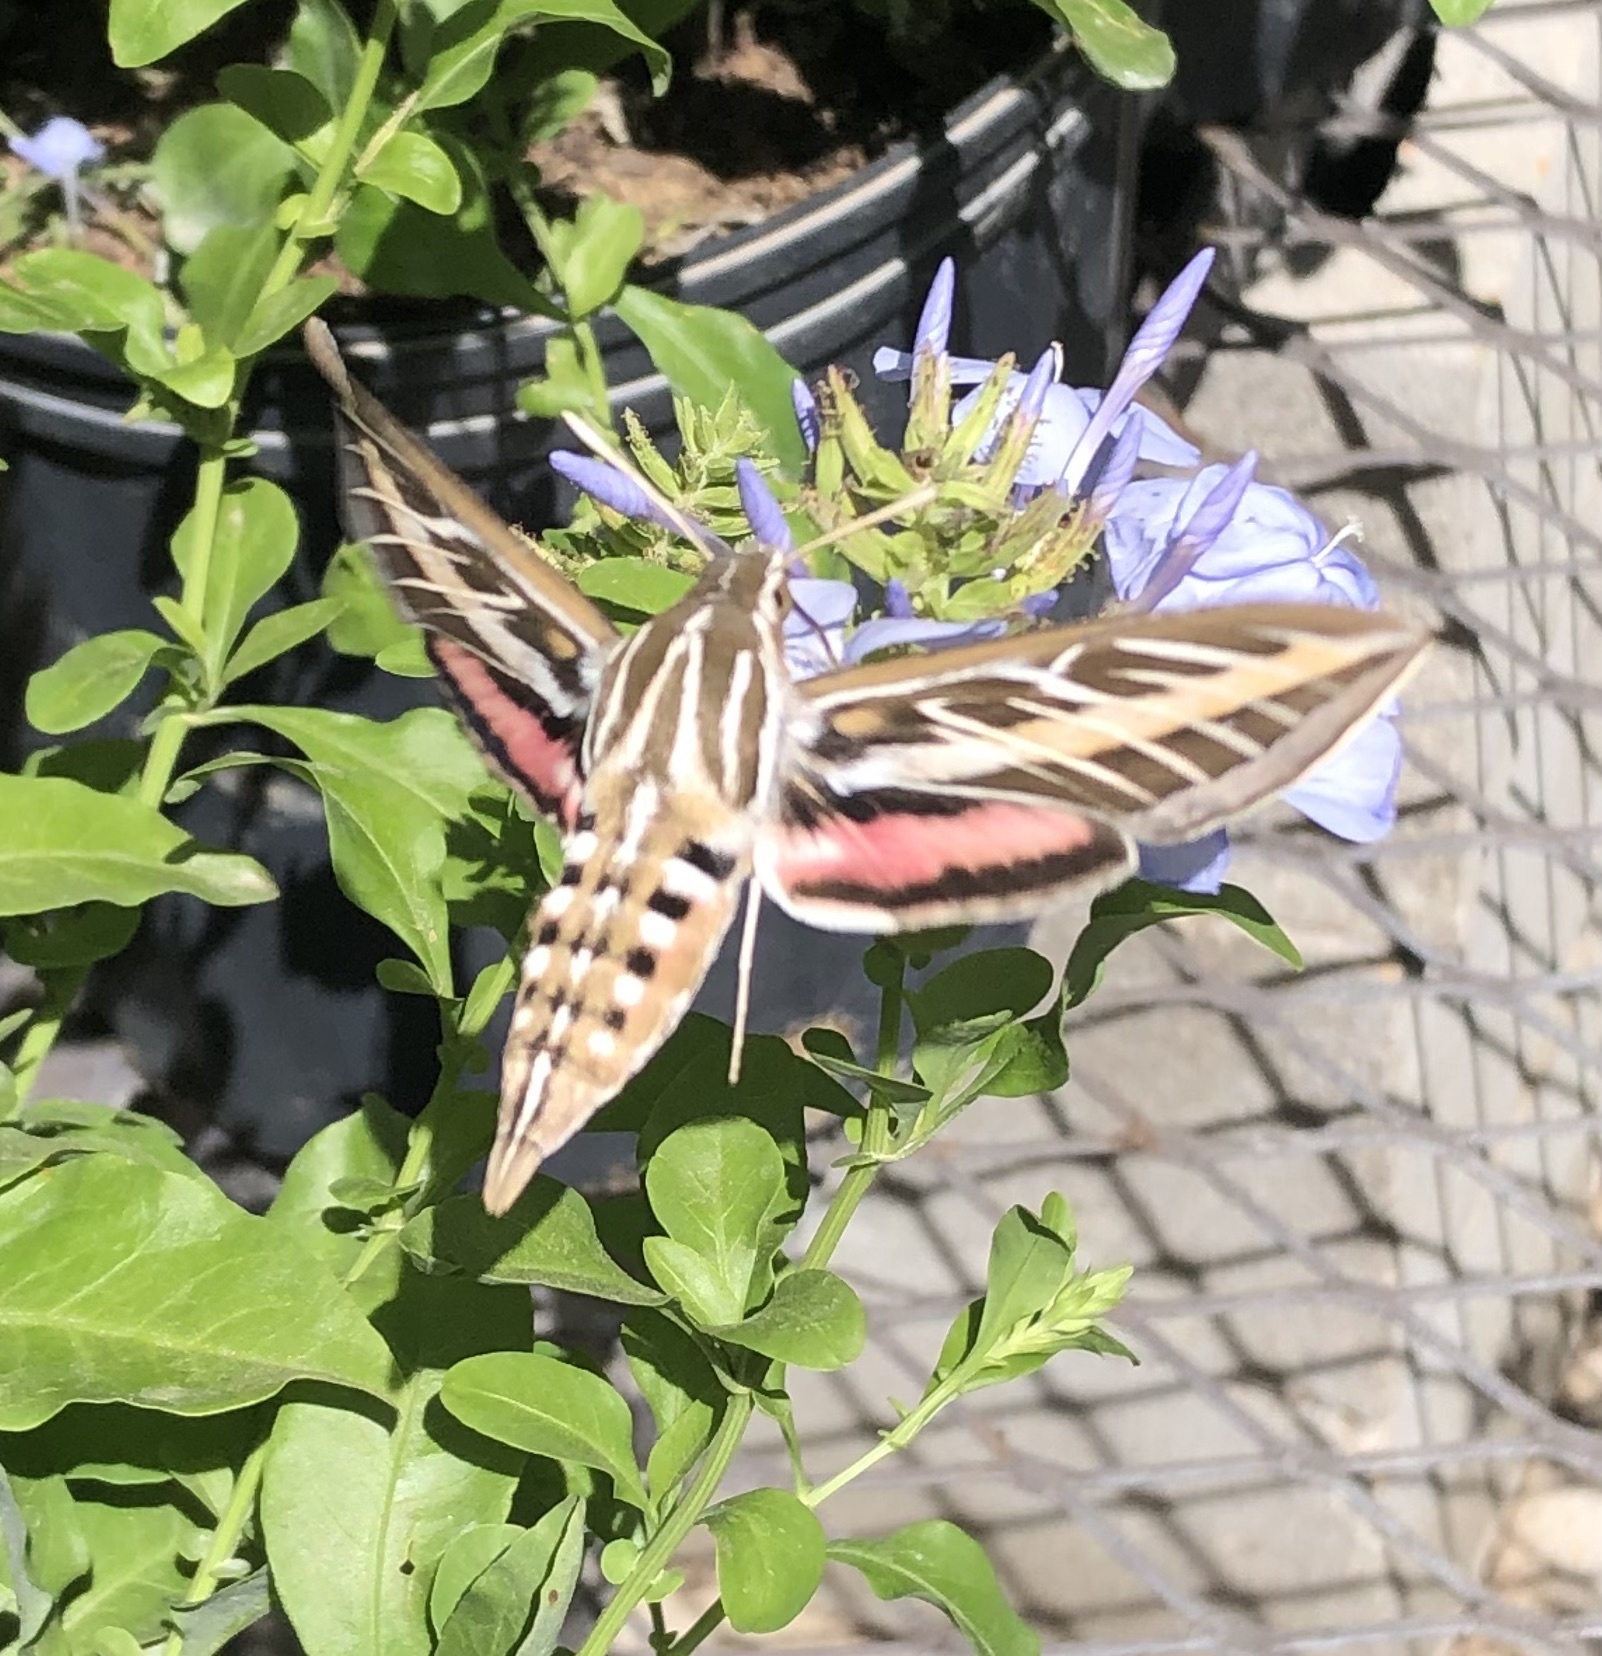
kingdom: Animalia
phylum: Arthropoda
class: Insecta
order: Lepidoptera
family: Sphingidae
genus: Hyles
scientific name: Hyles lineata
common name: White-lined sphinx
